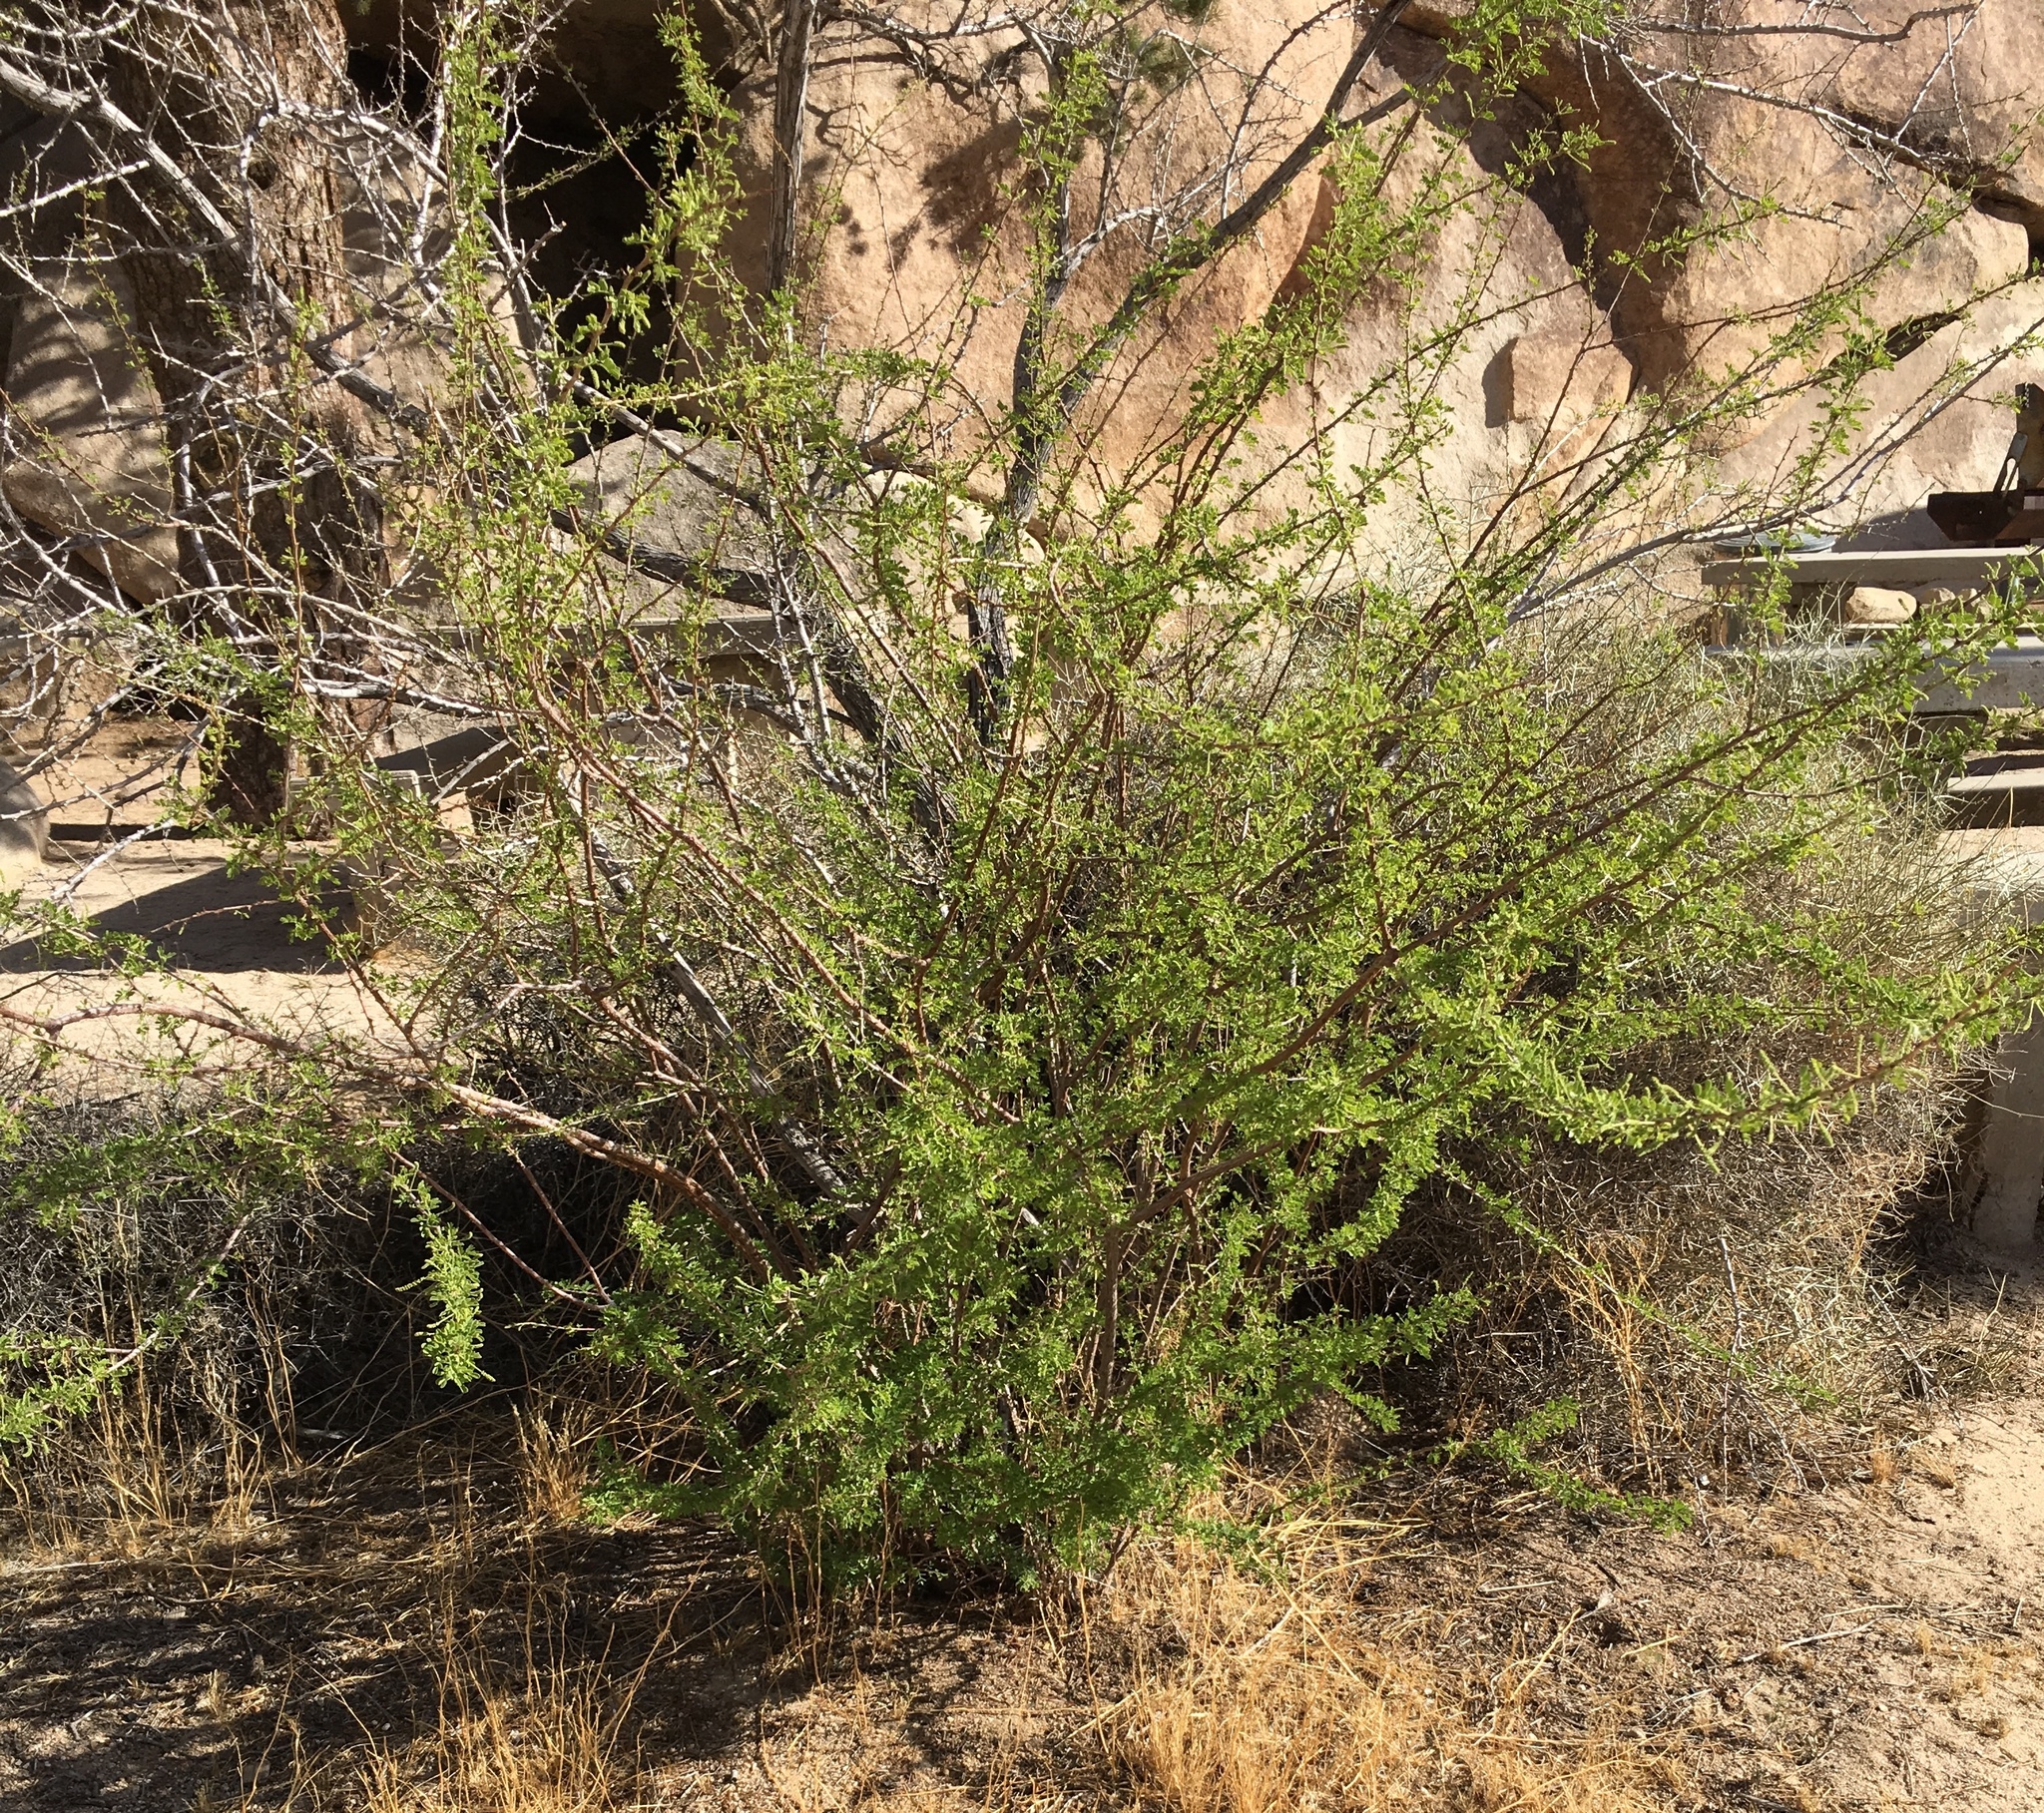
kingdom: Plantae
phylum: Tracheophyta
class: Magnoliopsida
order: Fabales
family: Fabaceae
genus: Senegalia
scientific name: Senegalia greggii
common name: Texas-mimosa
